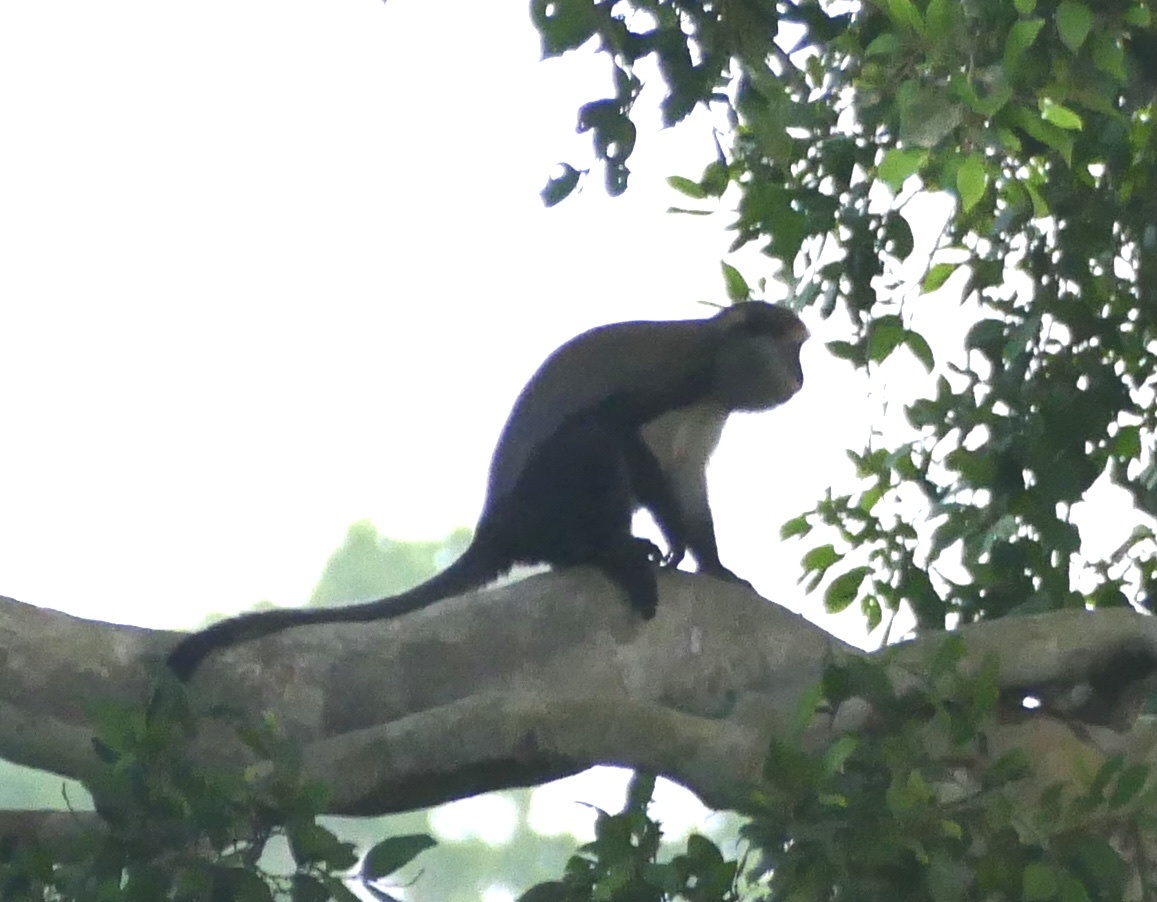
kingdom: Animalia
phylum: Chordata
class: Mammalia
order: Primates
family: Cercopithecidae
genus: Cercopithecus
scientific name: Cercopithecus lowei
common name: Lowe's monkey
